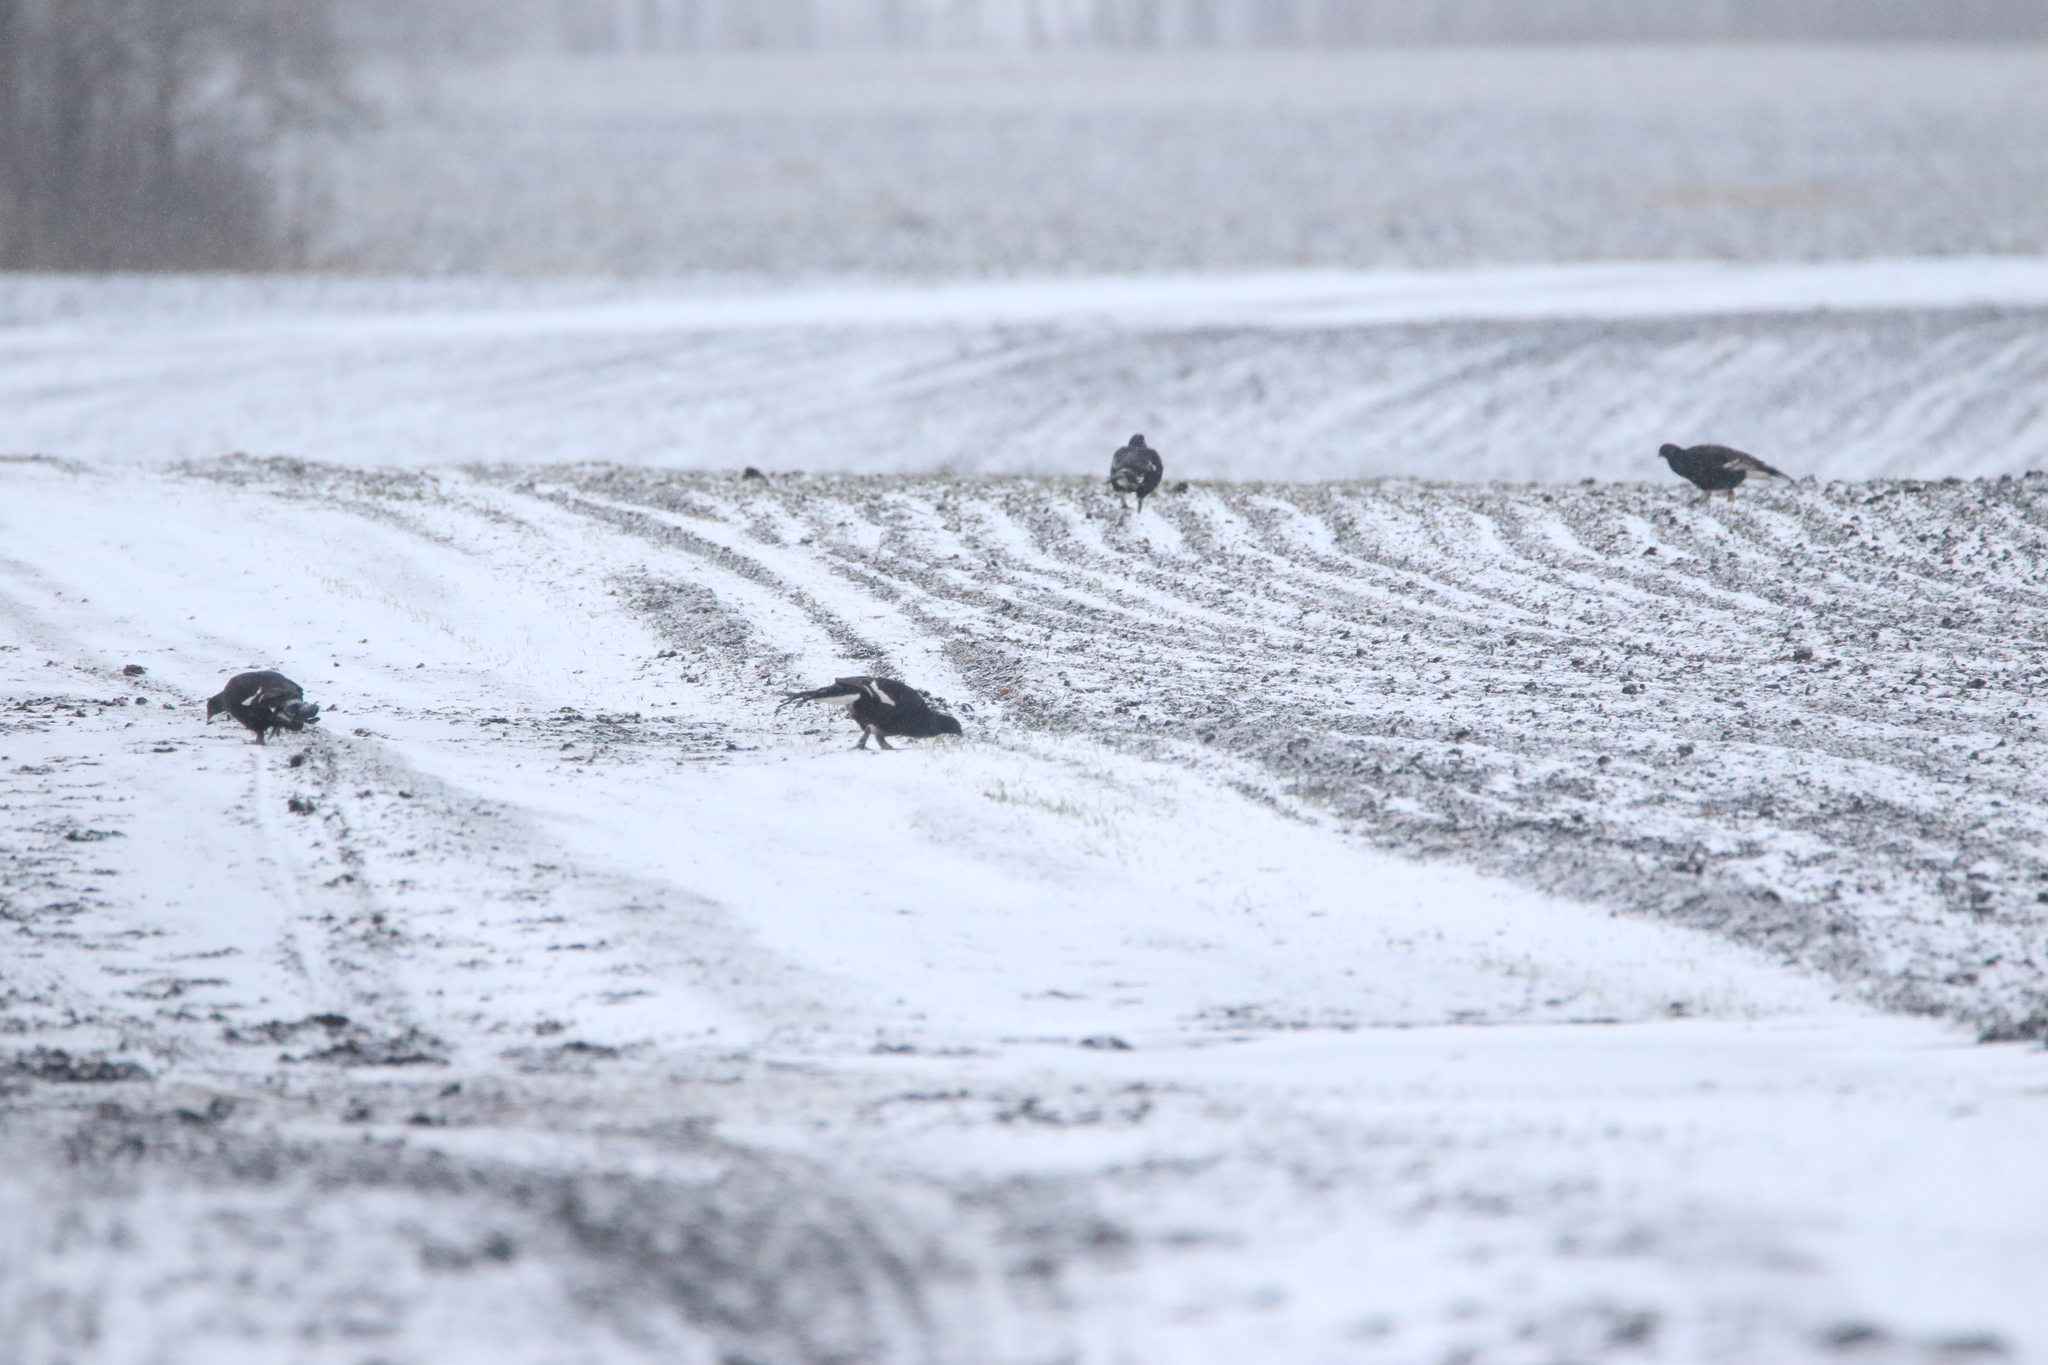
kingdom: Animalia
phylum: Chordata
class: Aves
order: Galliformes
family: Phasianidae
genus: Lyrurus
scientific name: Lyrurus tetrix
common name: Black grouse
